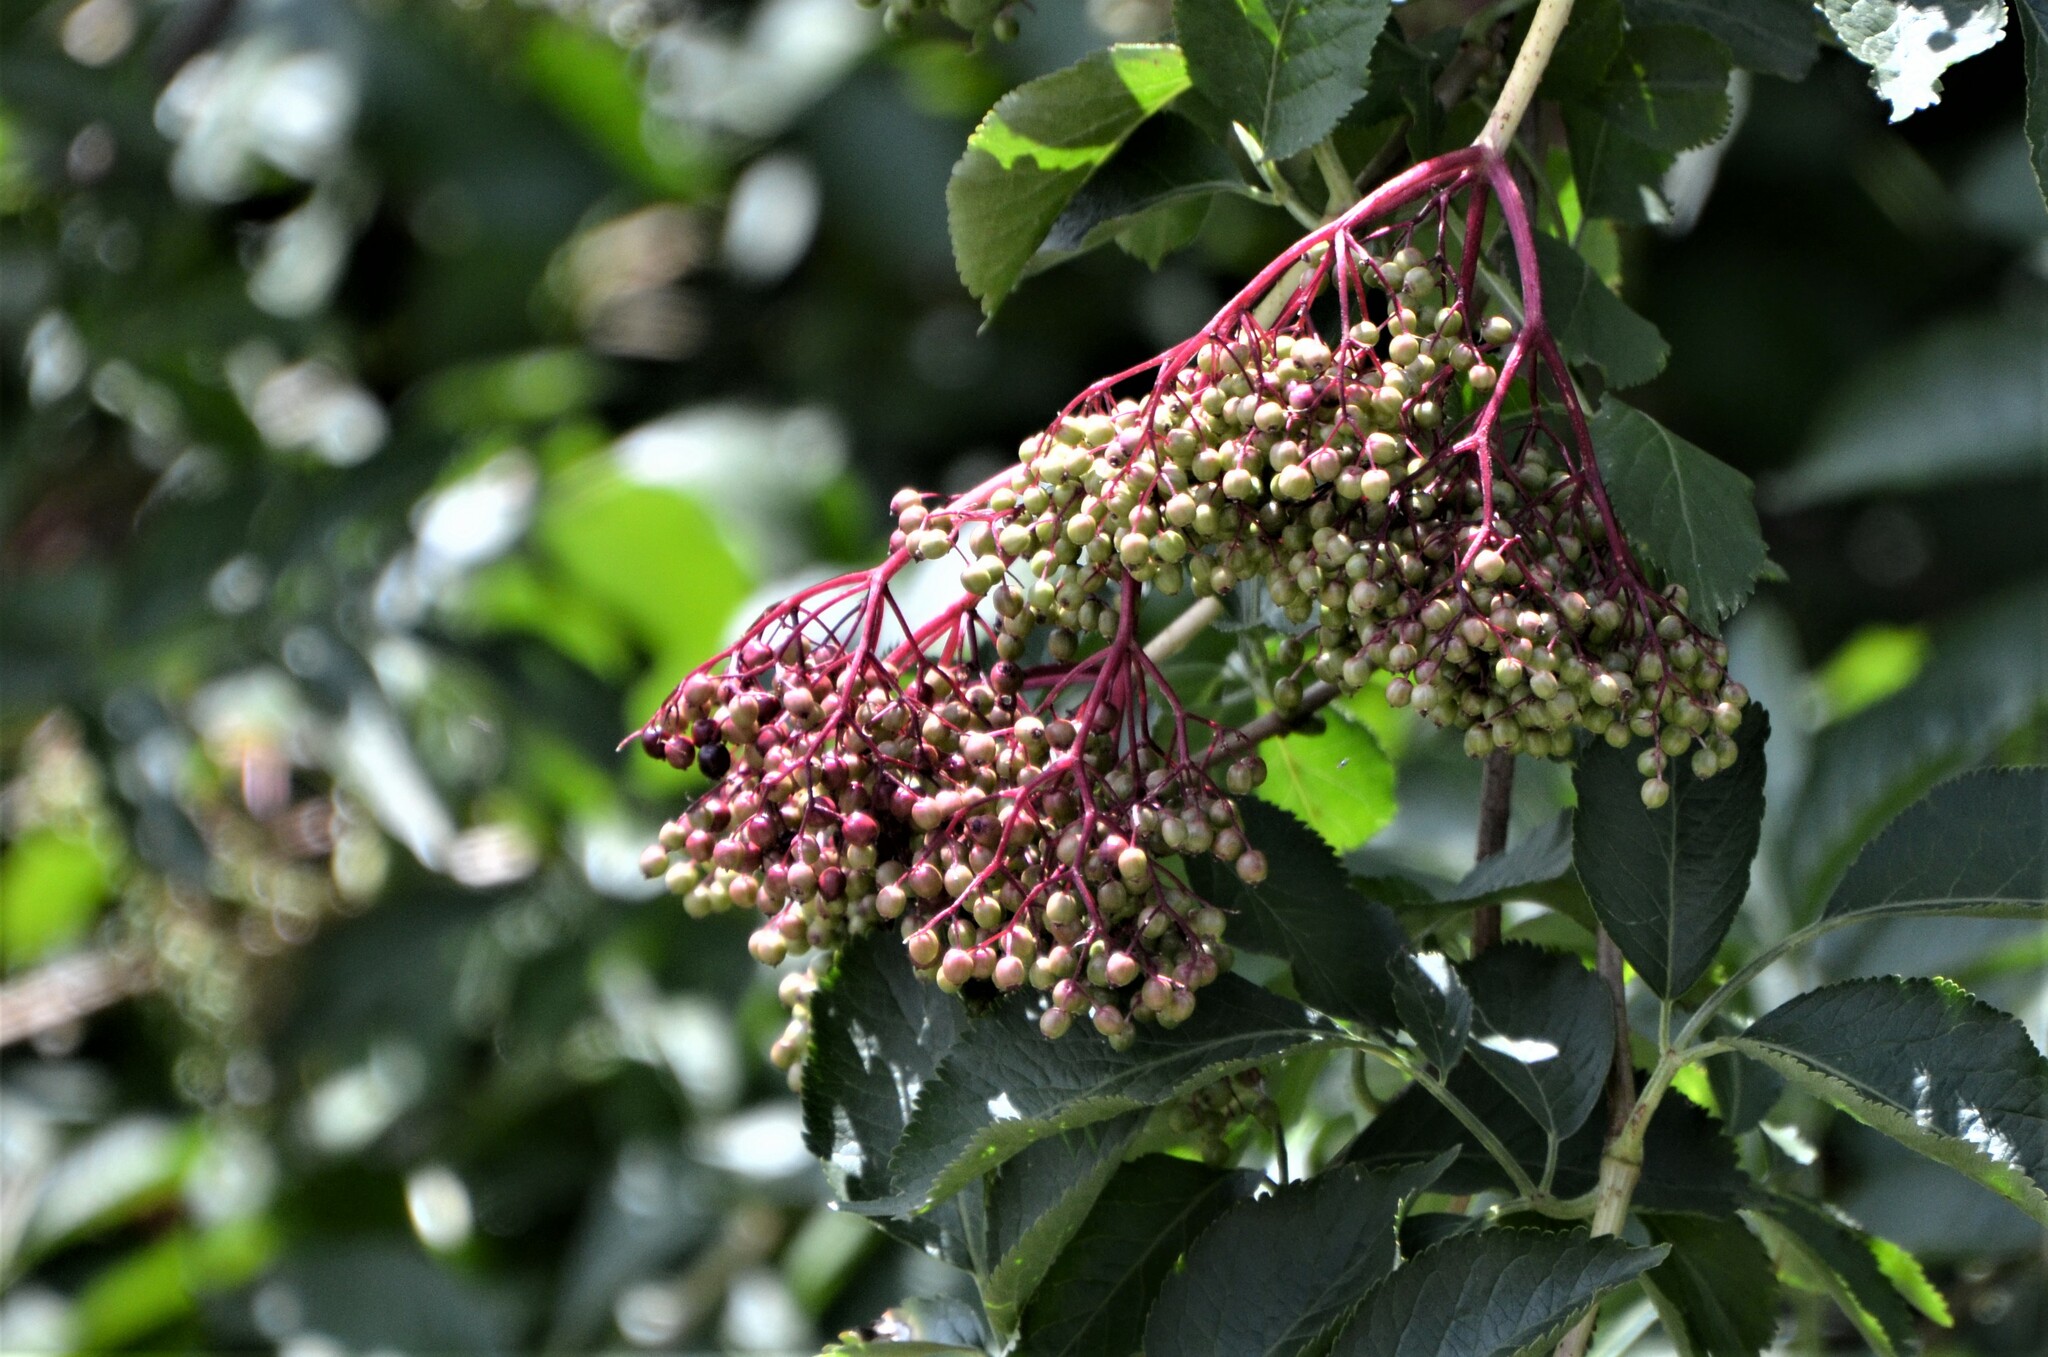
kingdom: Plantae
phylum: Tracheophyta
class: Magnoliopsida
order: Dipsacales
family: Viburnaceae
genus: Sambucus
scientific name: Sambucus nigra
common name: Elder
